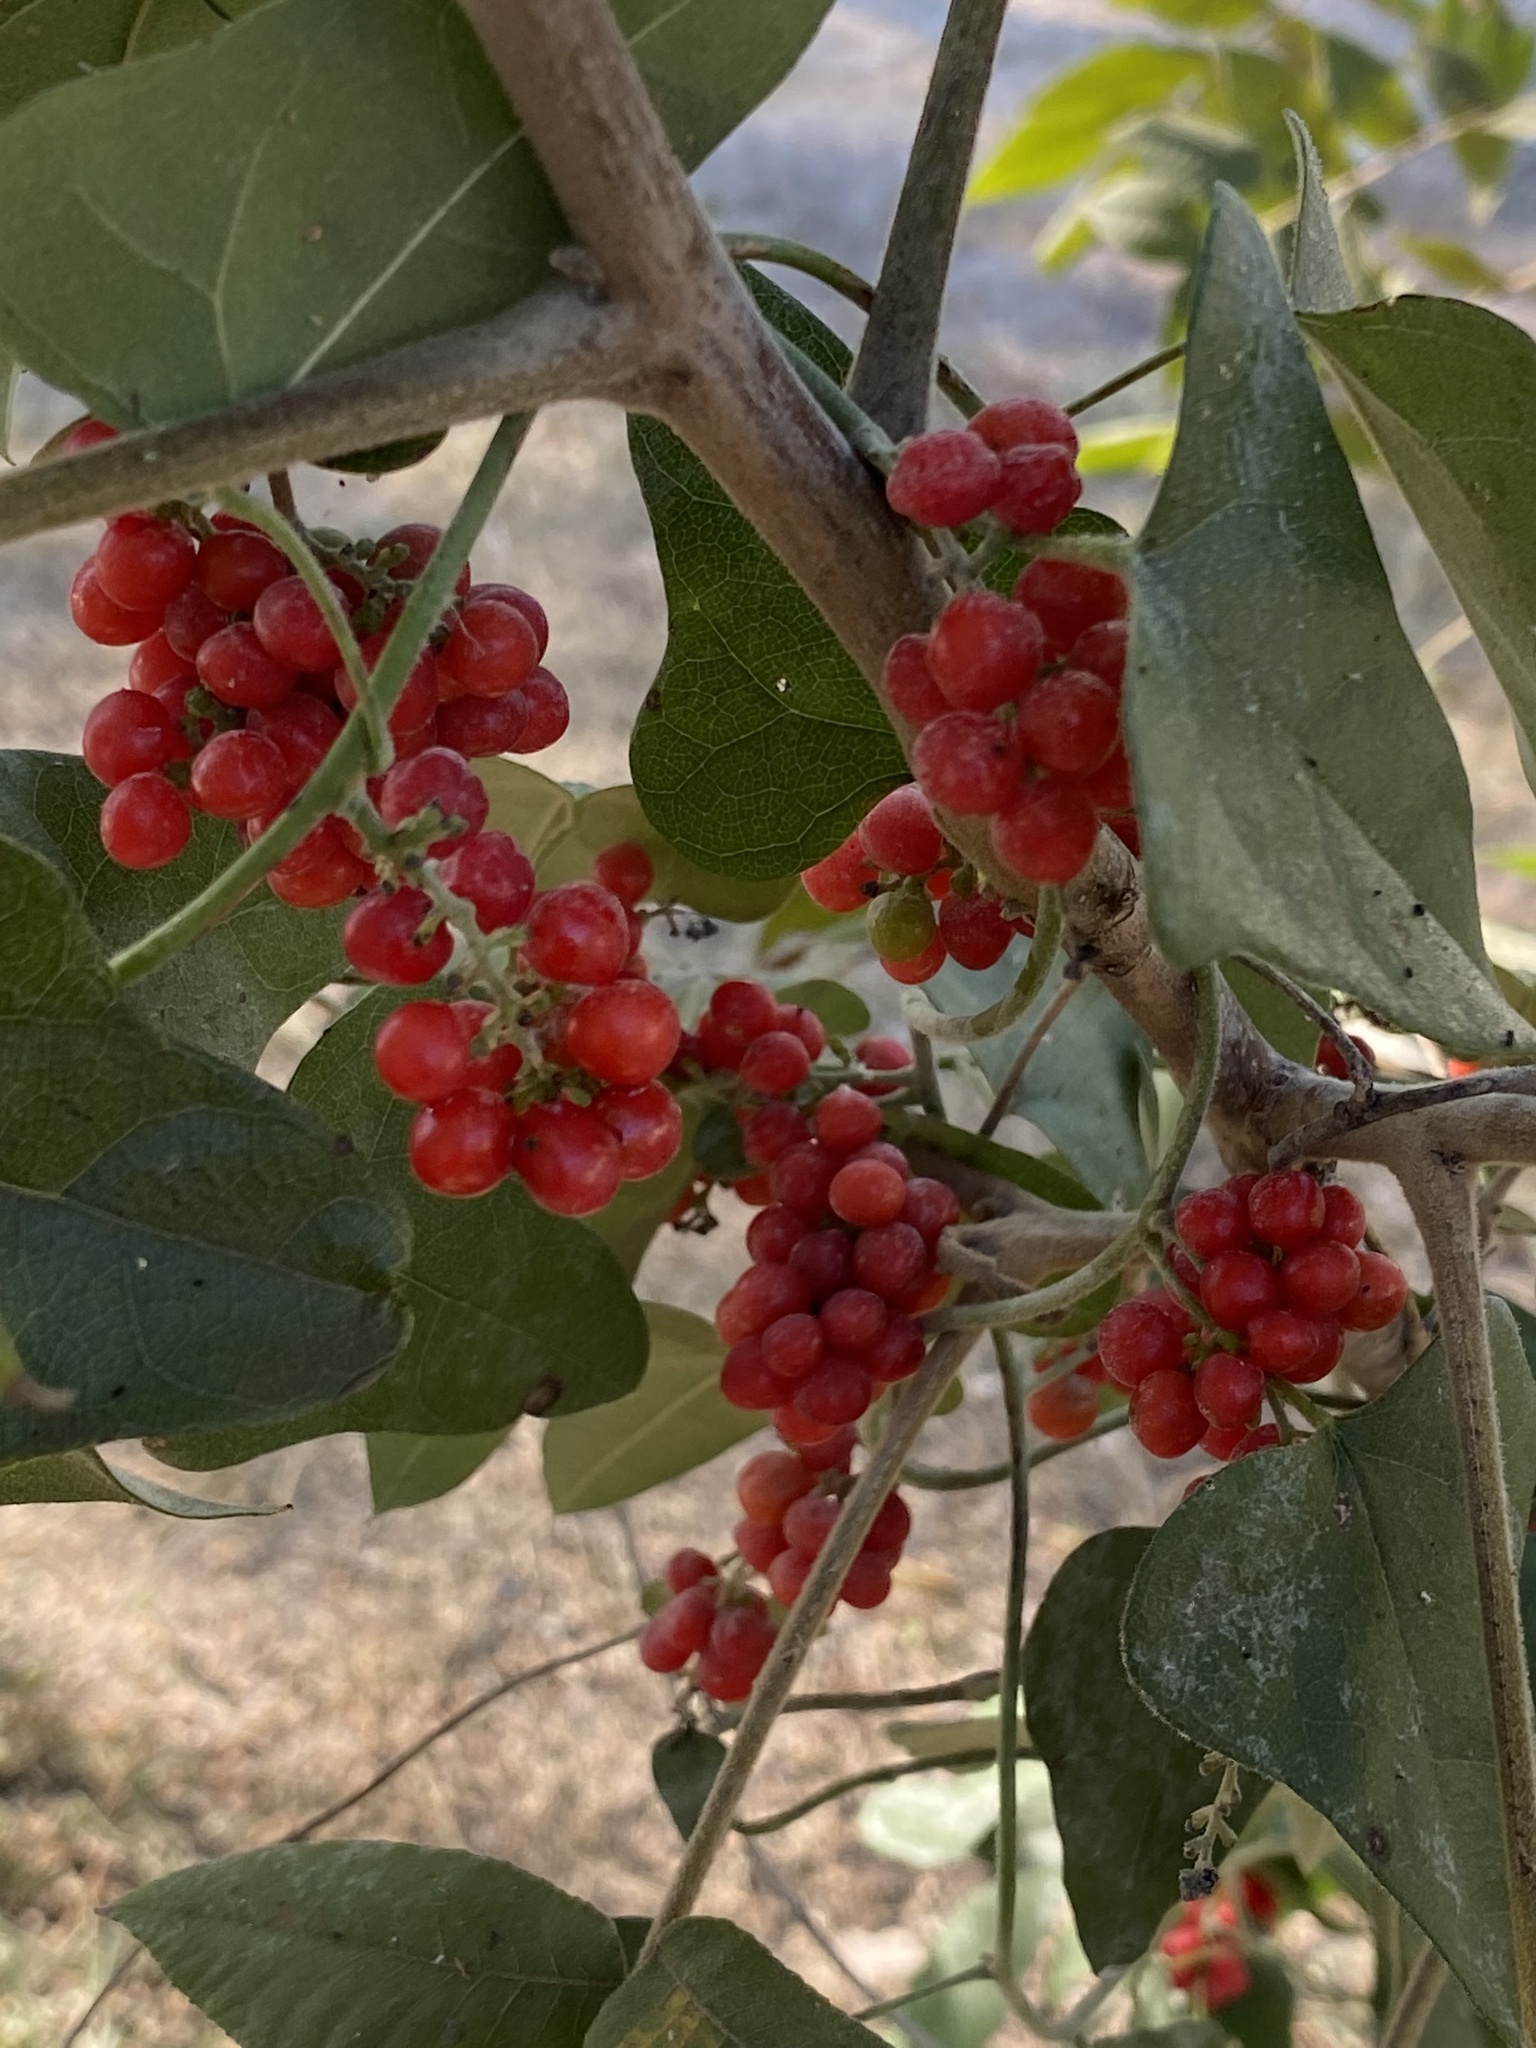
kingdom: Plantae
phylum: Tracheophyta
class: Magnoliopsida
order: Ranunculales
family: Menispermaceae
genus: Cocculus
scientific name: Cocculus carolinus
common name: Carolina moonseed
